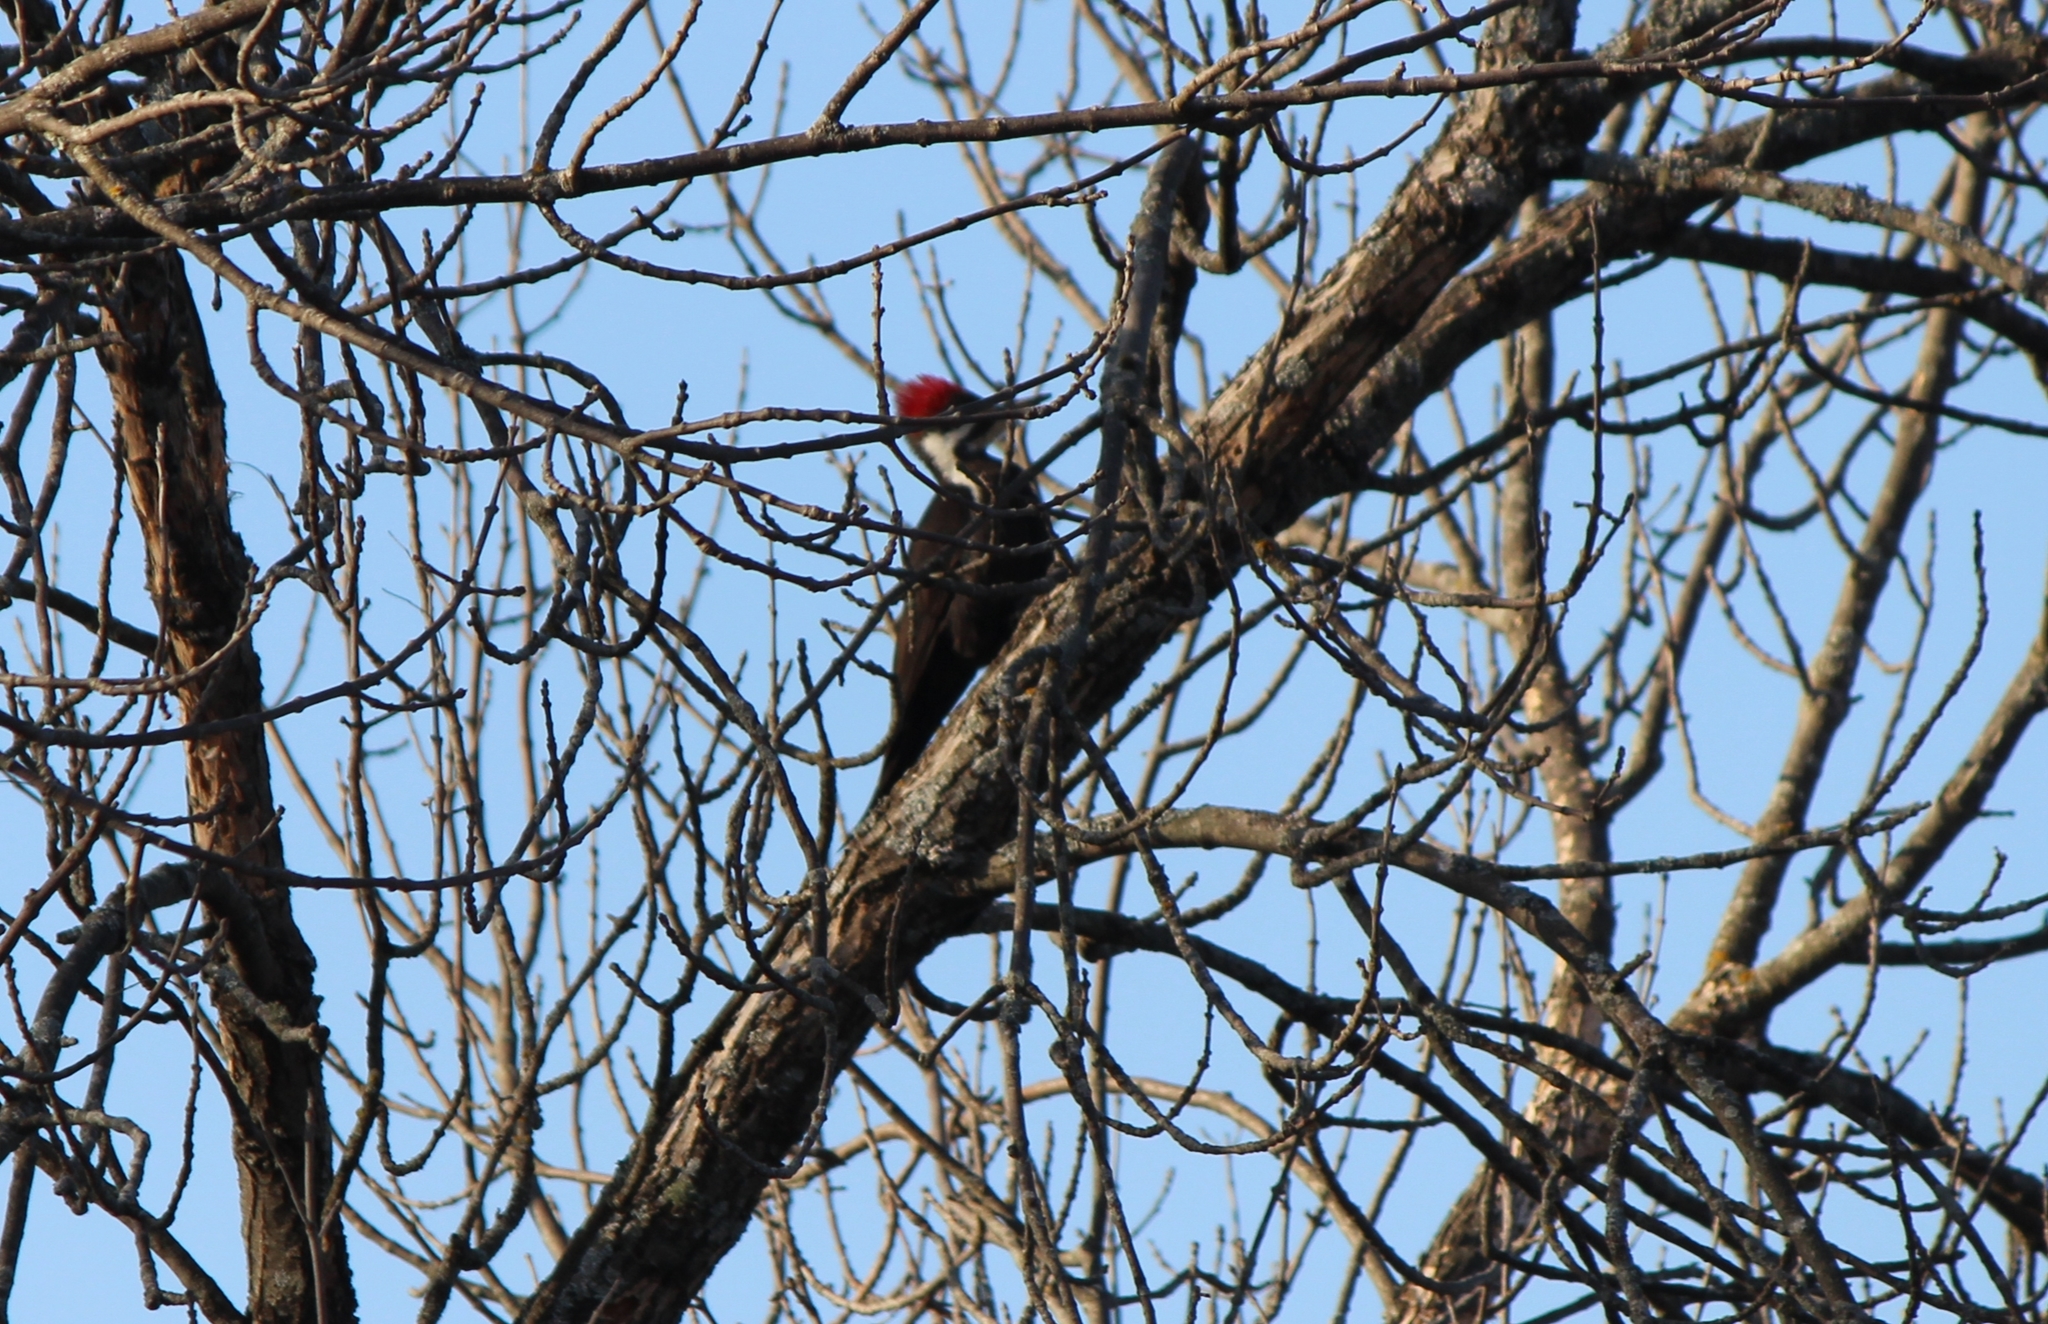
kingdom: Animalia
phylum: Chordata
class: Aves
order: Piciformes
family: Picidae
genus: Dryocopus
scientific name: Dryocopus pileatus
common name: Pileated woodpecker
